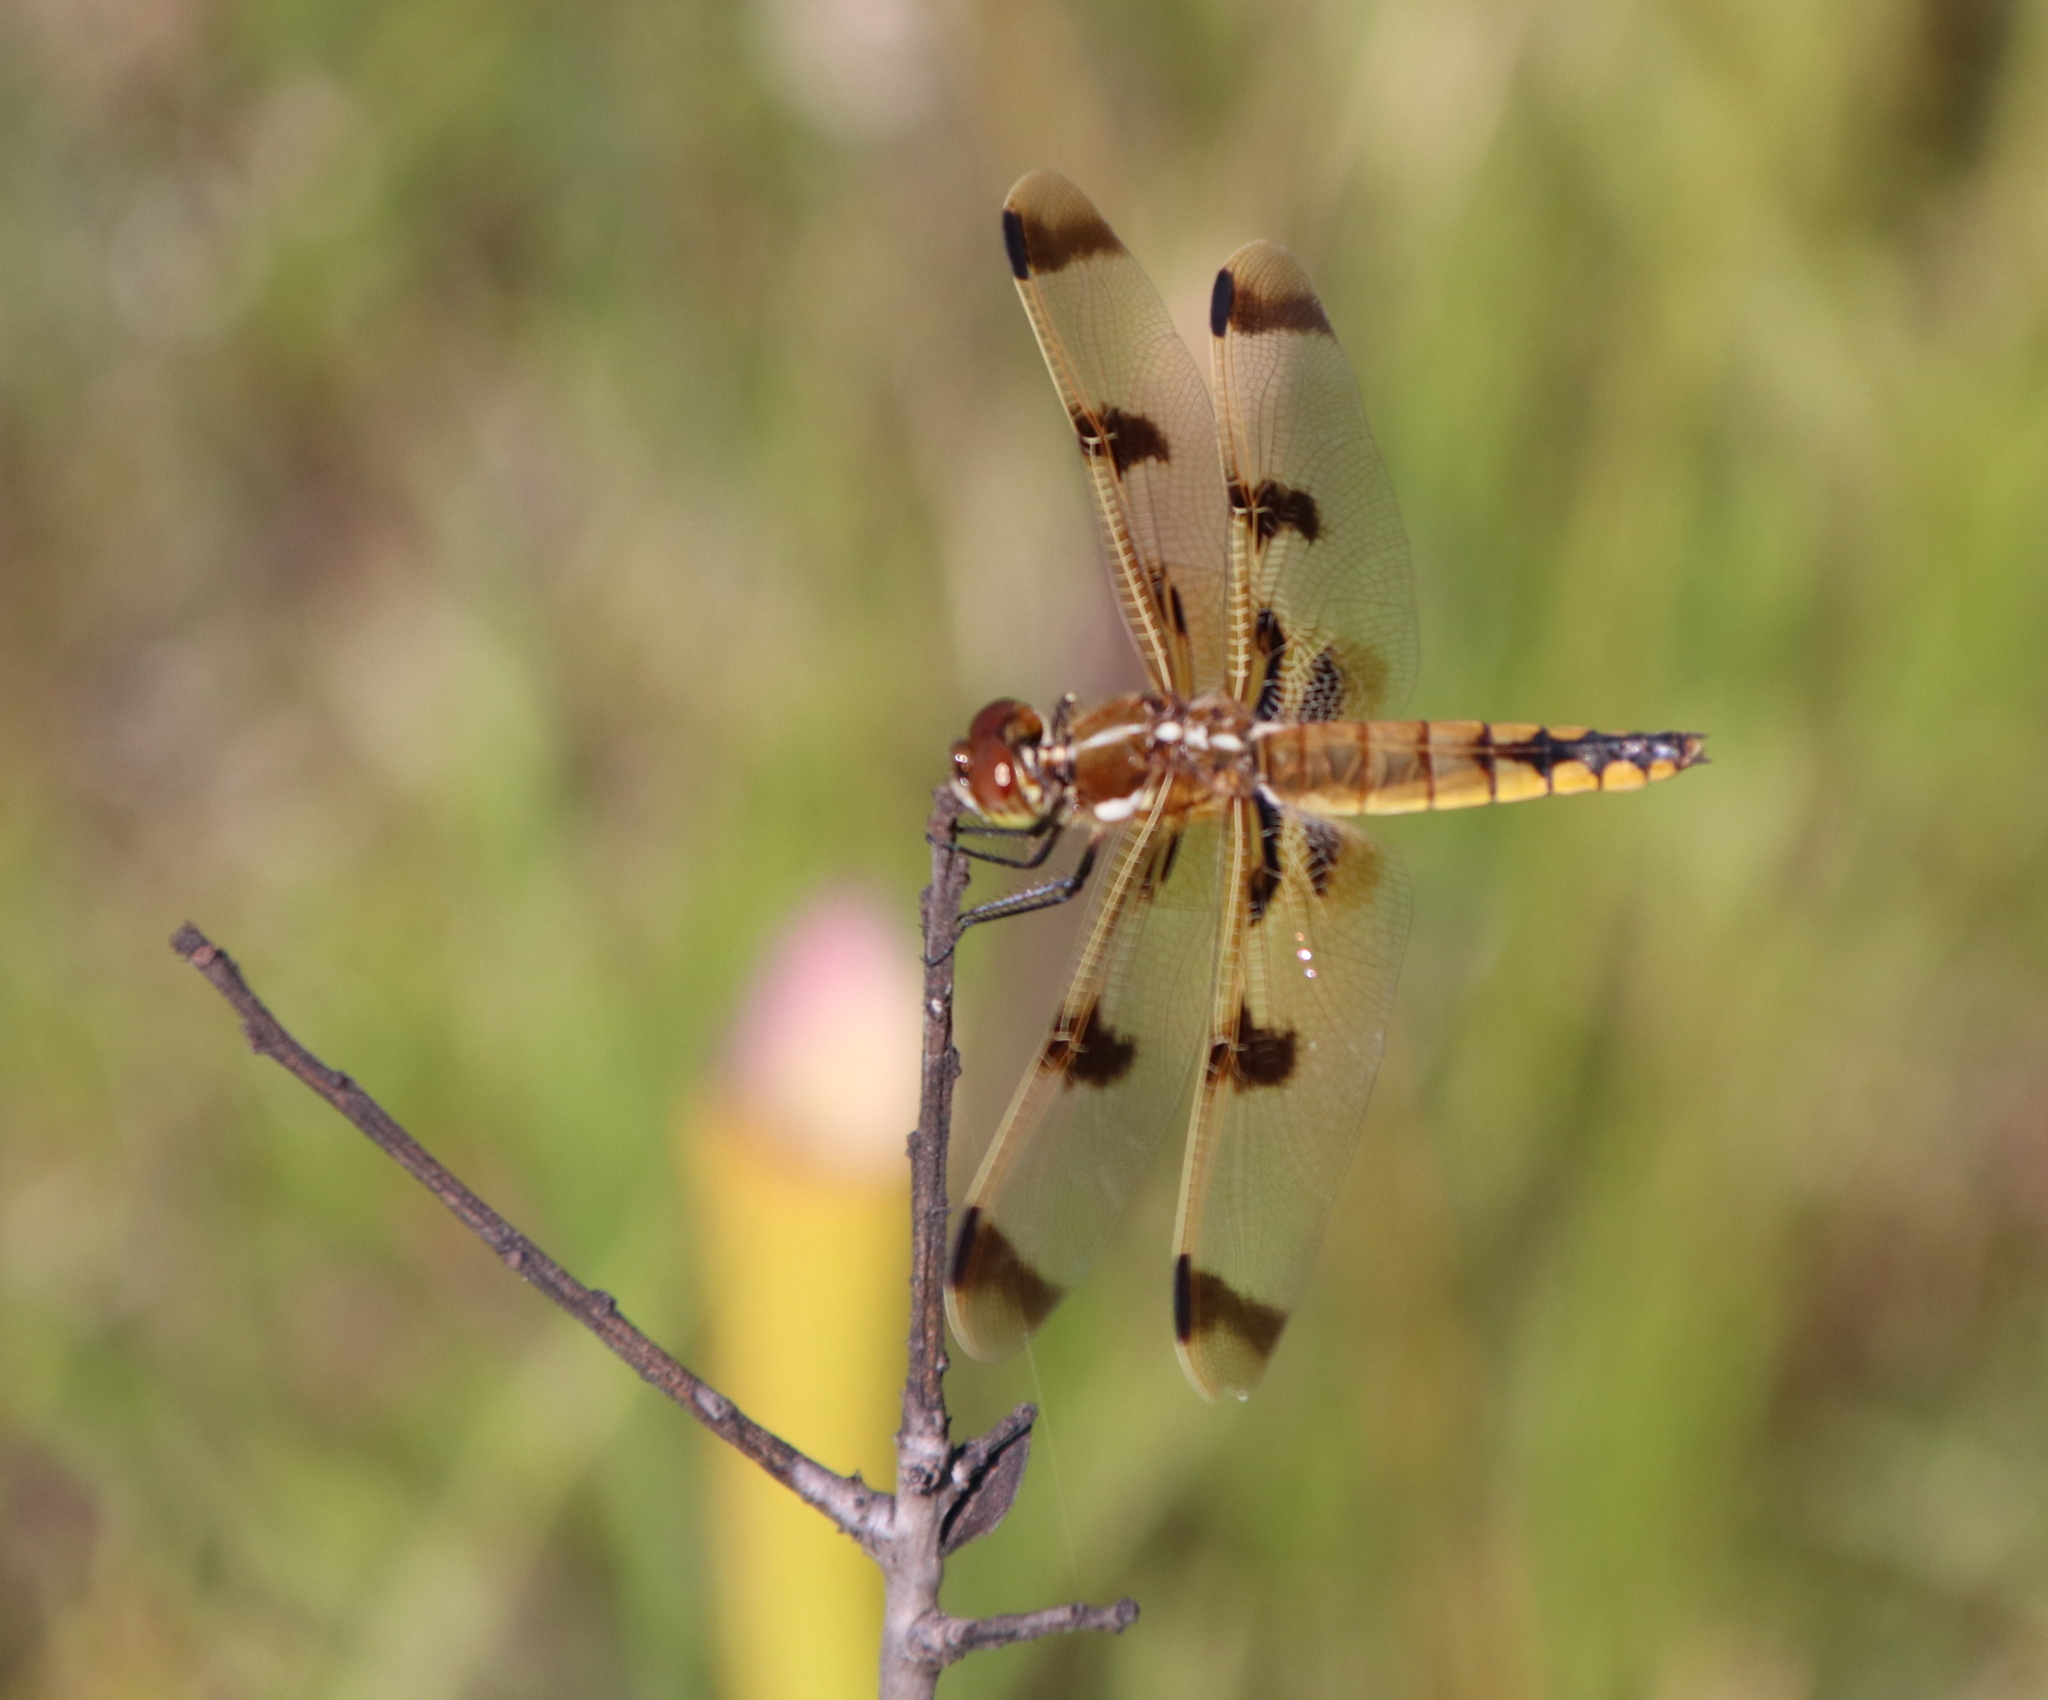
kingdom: Animalia
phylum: Arthropoda
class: Insecta
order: Odonata
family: Libellulidae
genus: Libellula
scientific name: Libellula semifasciata
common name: Painted skimmer
